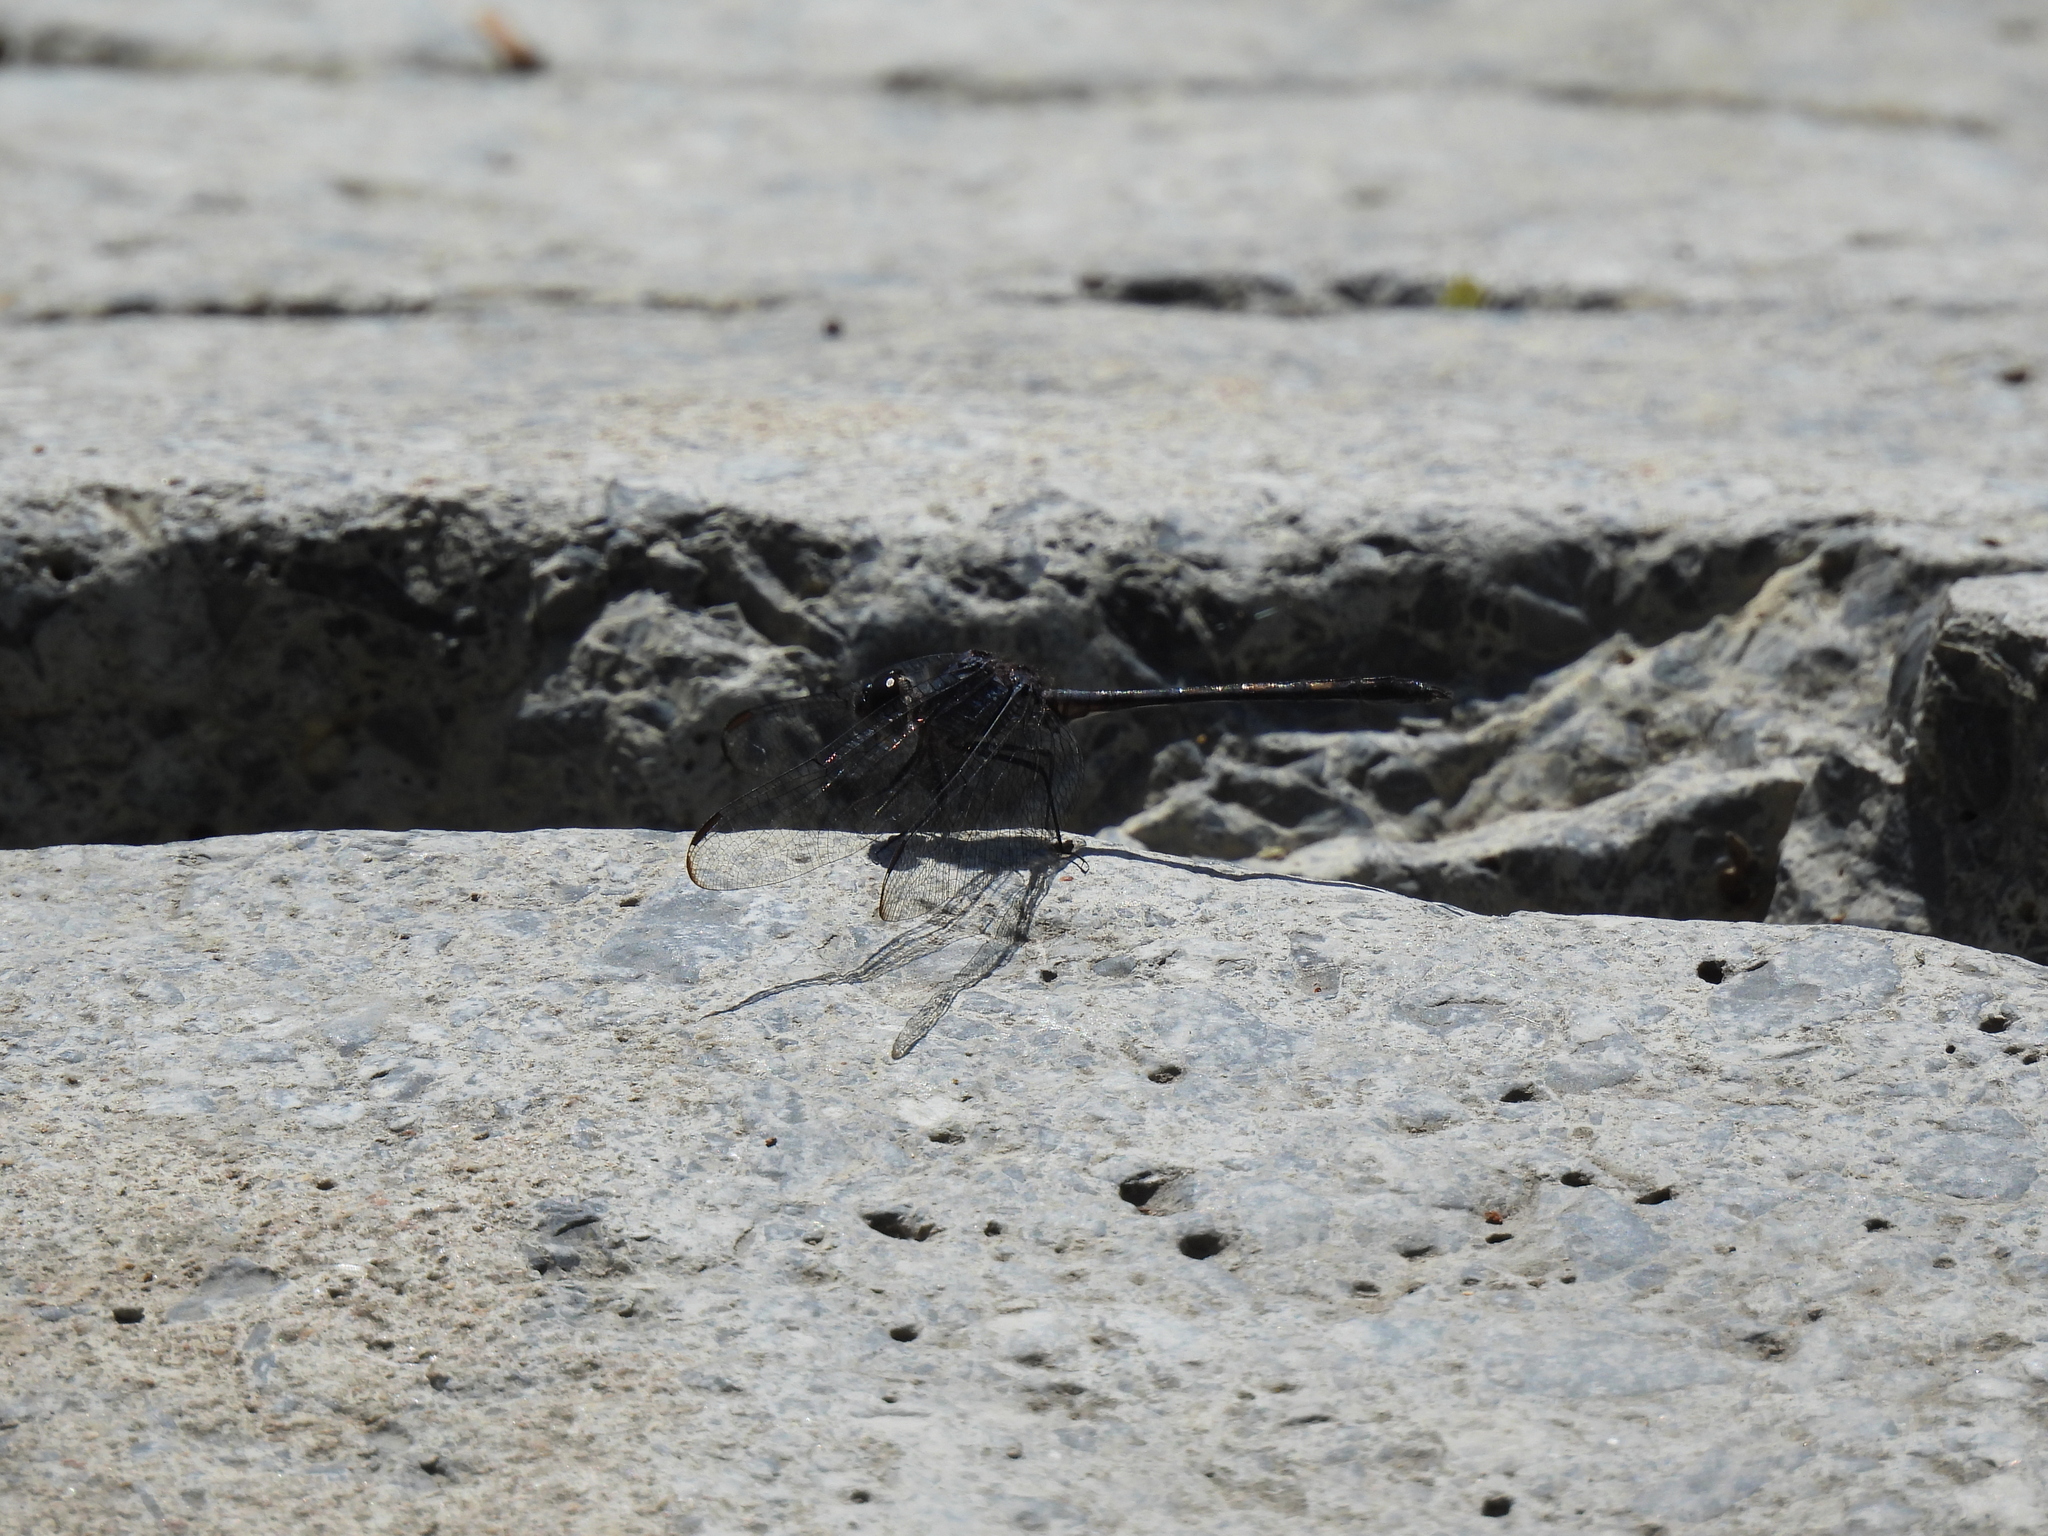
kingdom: Animalia
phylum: Arthropoda
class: Insecta
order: Odonata
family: Libellulidae
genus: Dythemis
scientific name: Dythemis nigrescens
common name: Black setwing
